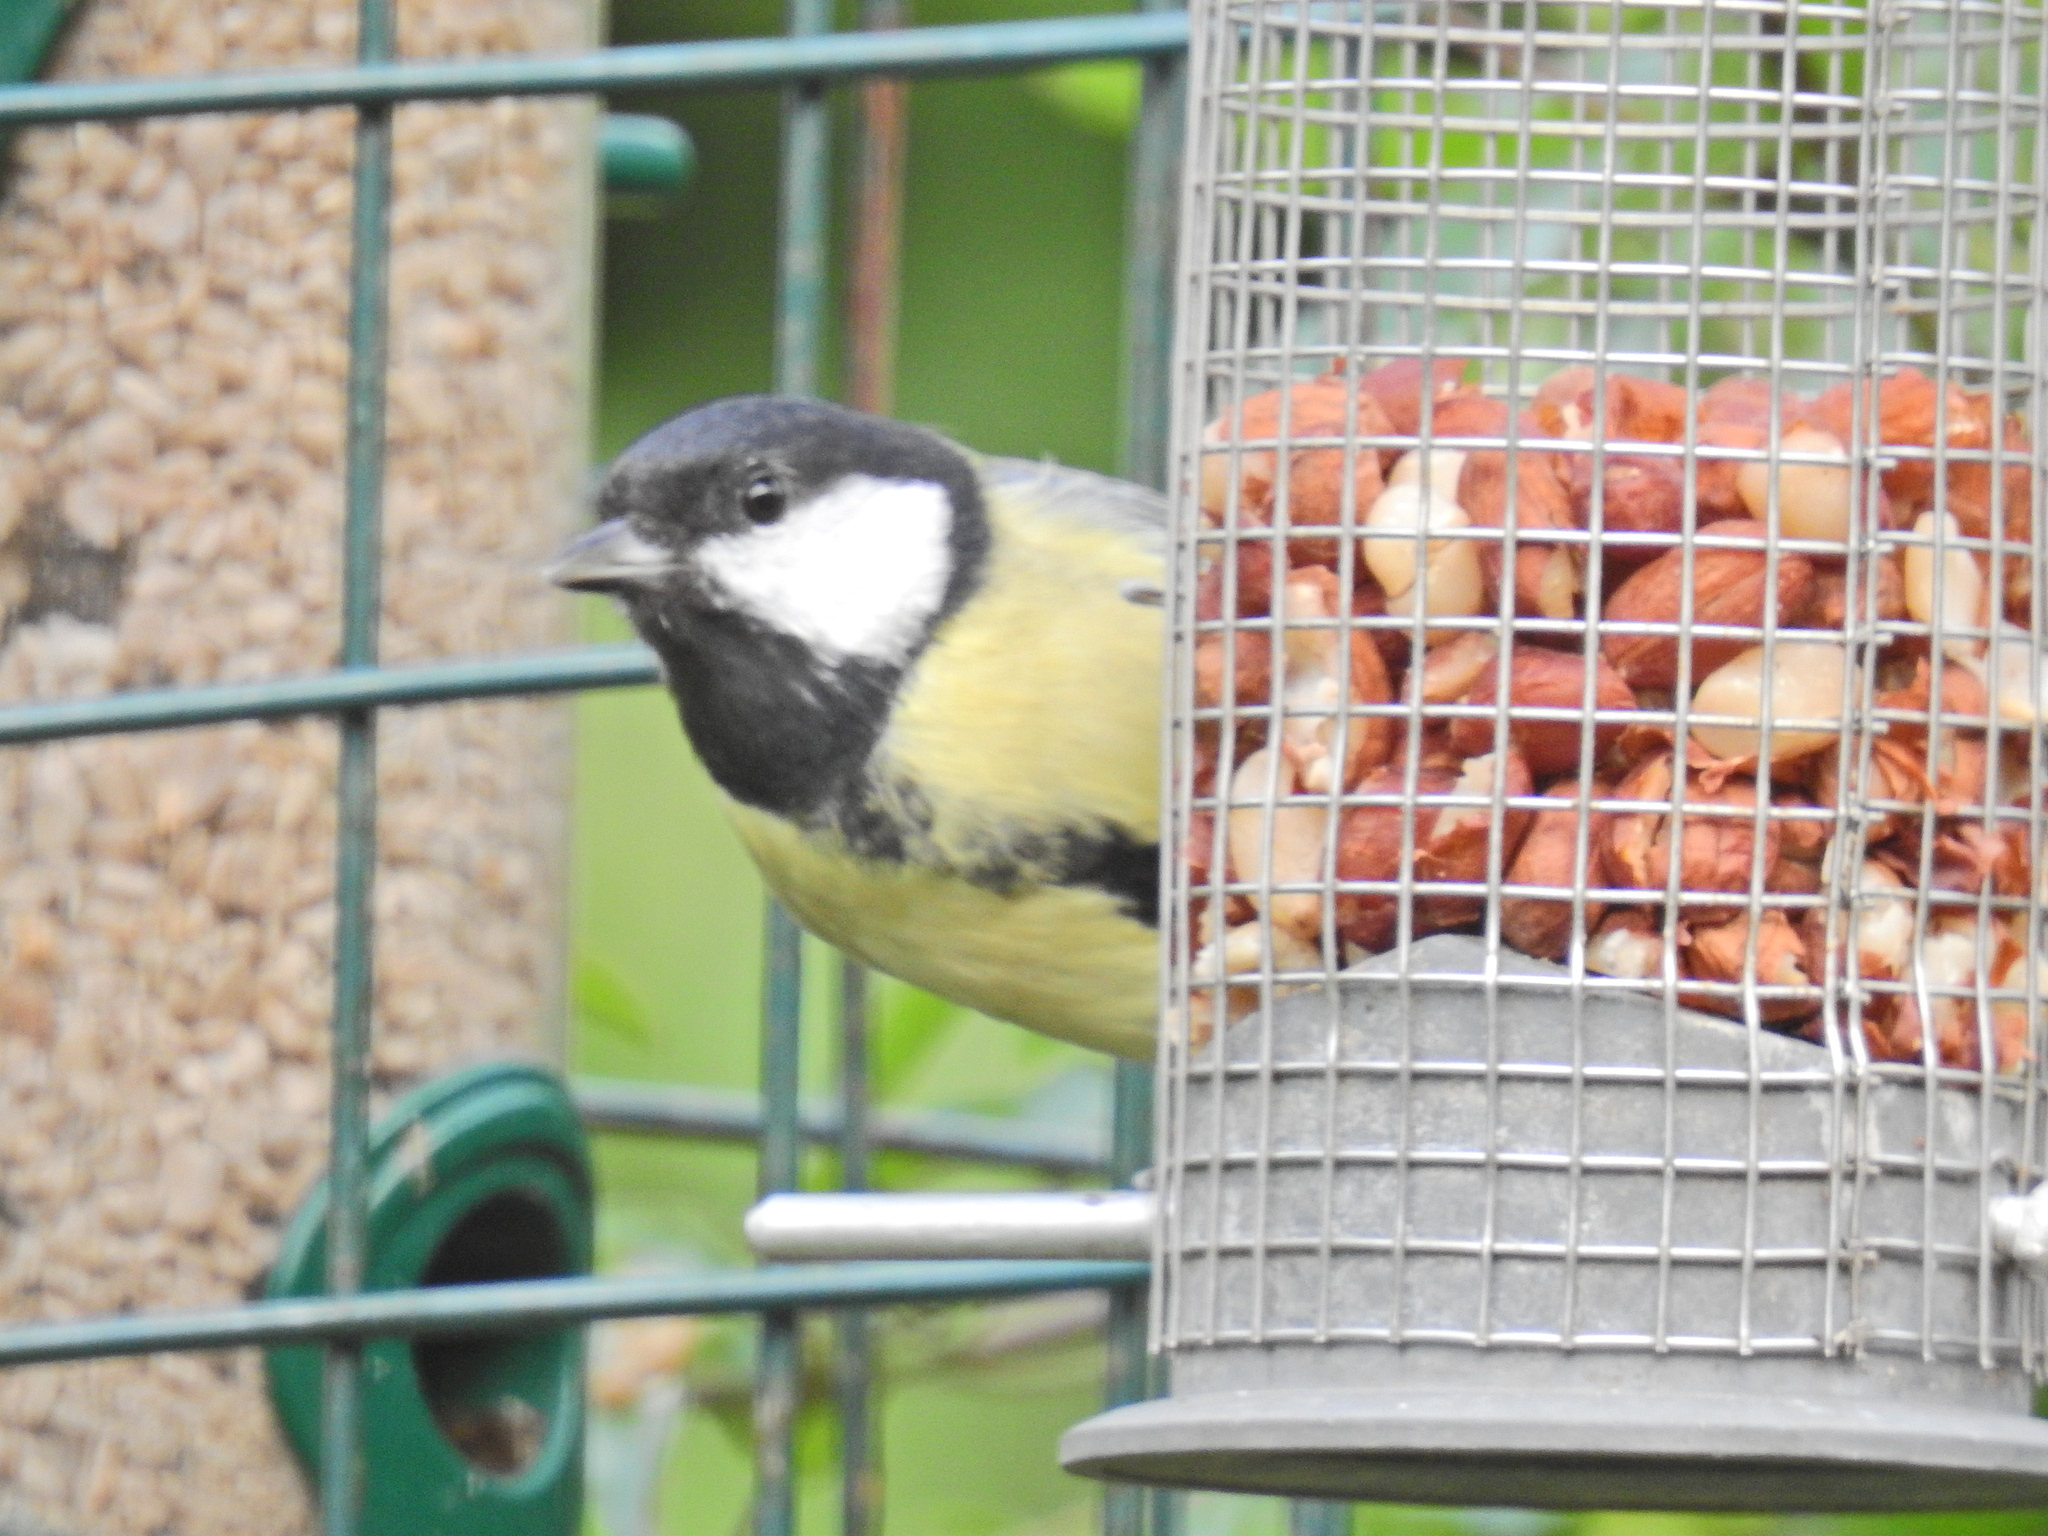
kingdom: Animalia
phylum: Chordata
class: Aves
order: Passeriformes
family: Paridae
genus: Parus
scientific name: Parus major
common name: Great tit
